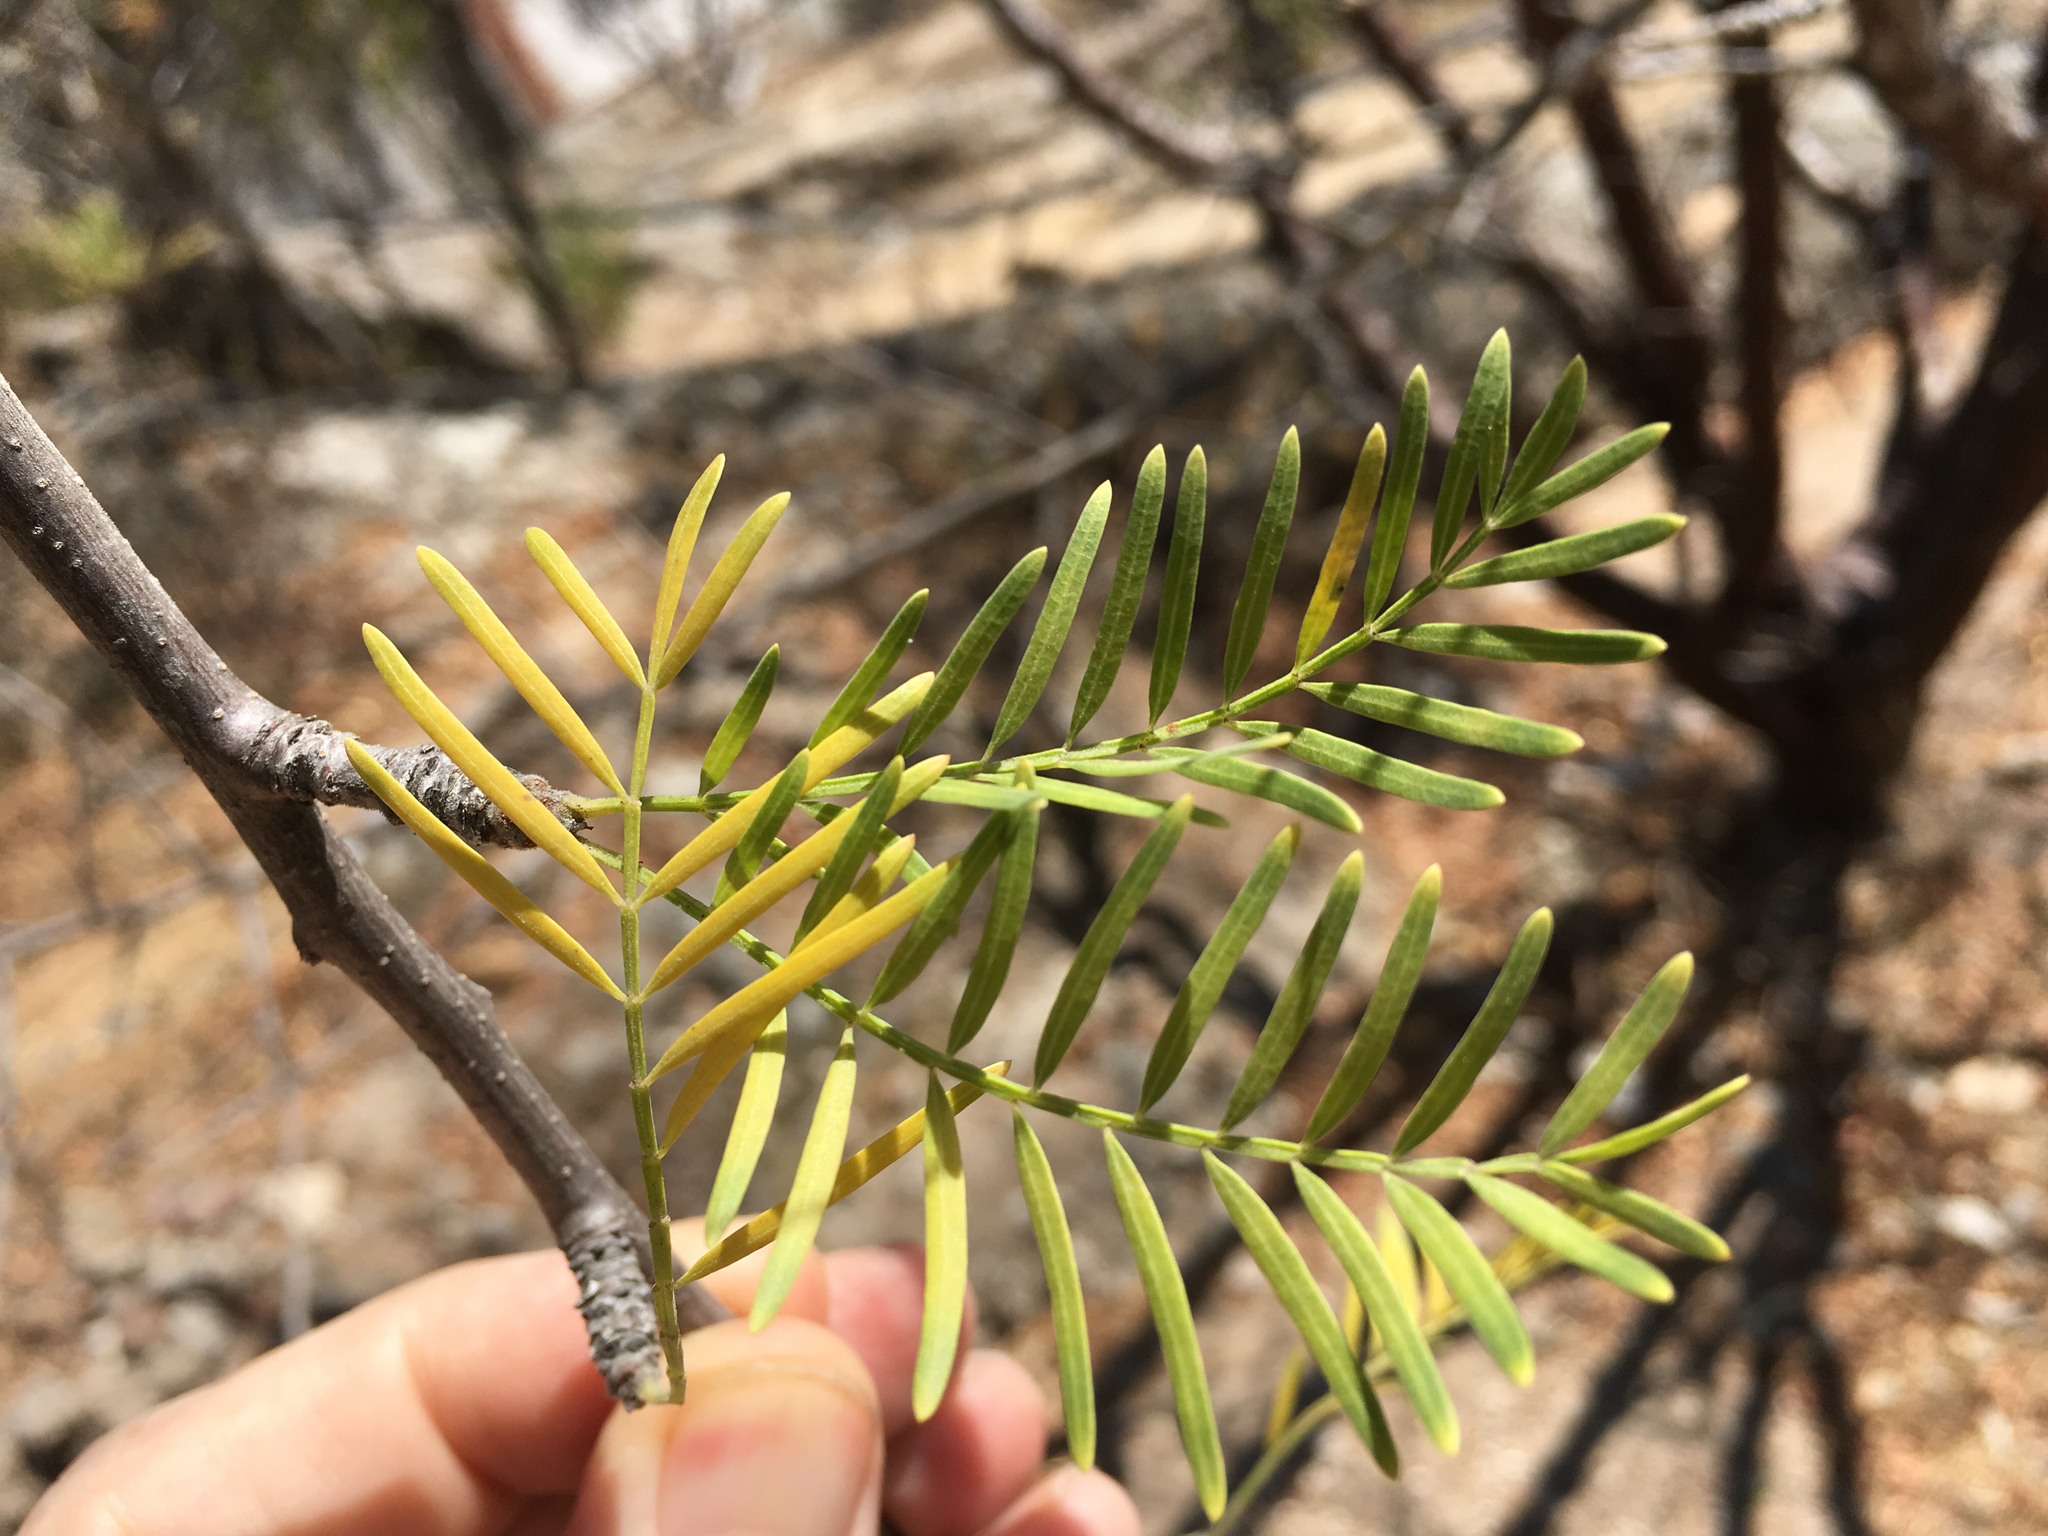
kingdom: Plantae
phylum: Tracheophyta
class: Magnoliopsida
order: Sapindales
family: Burseraceae
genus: Bursera
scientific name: Bursera galeottiana
